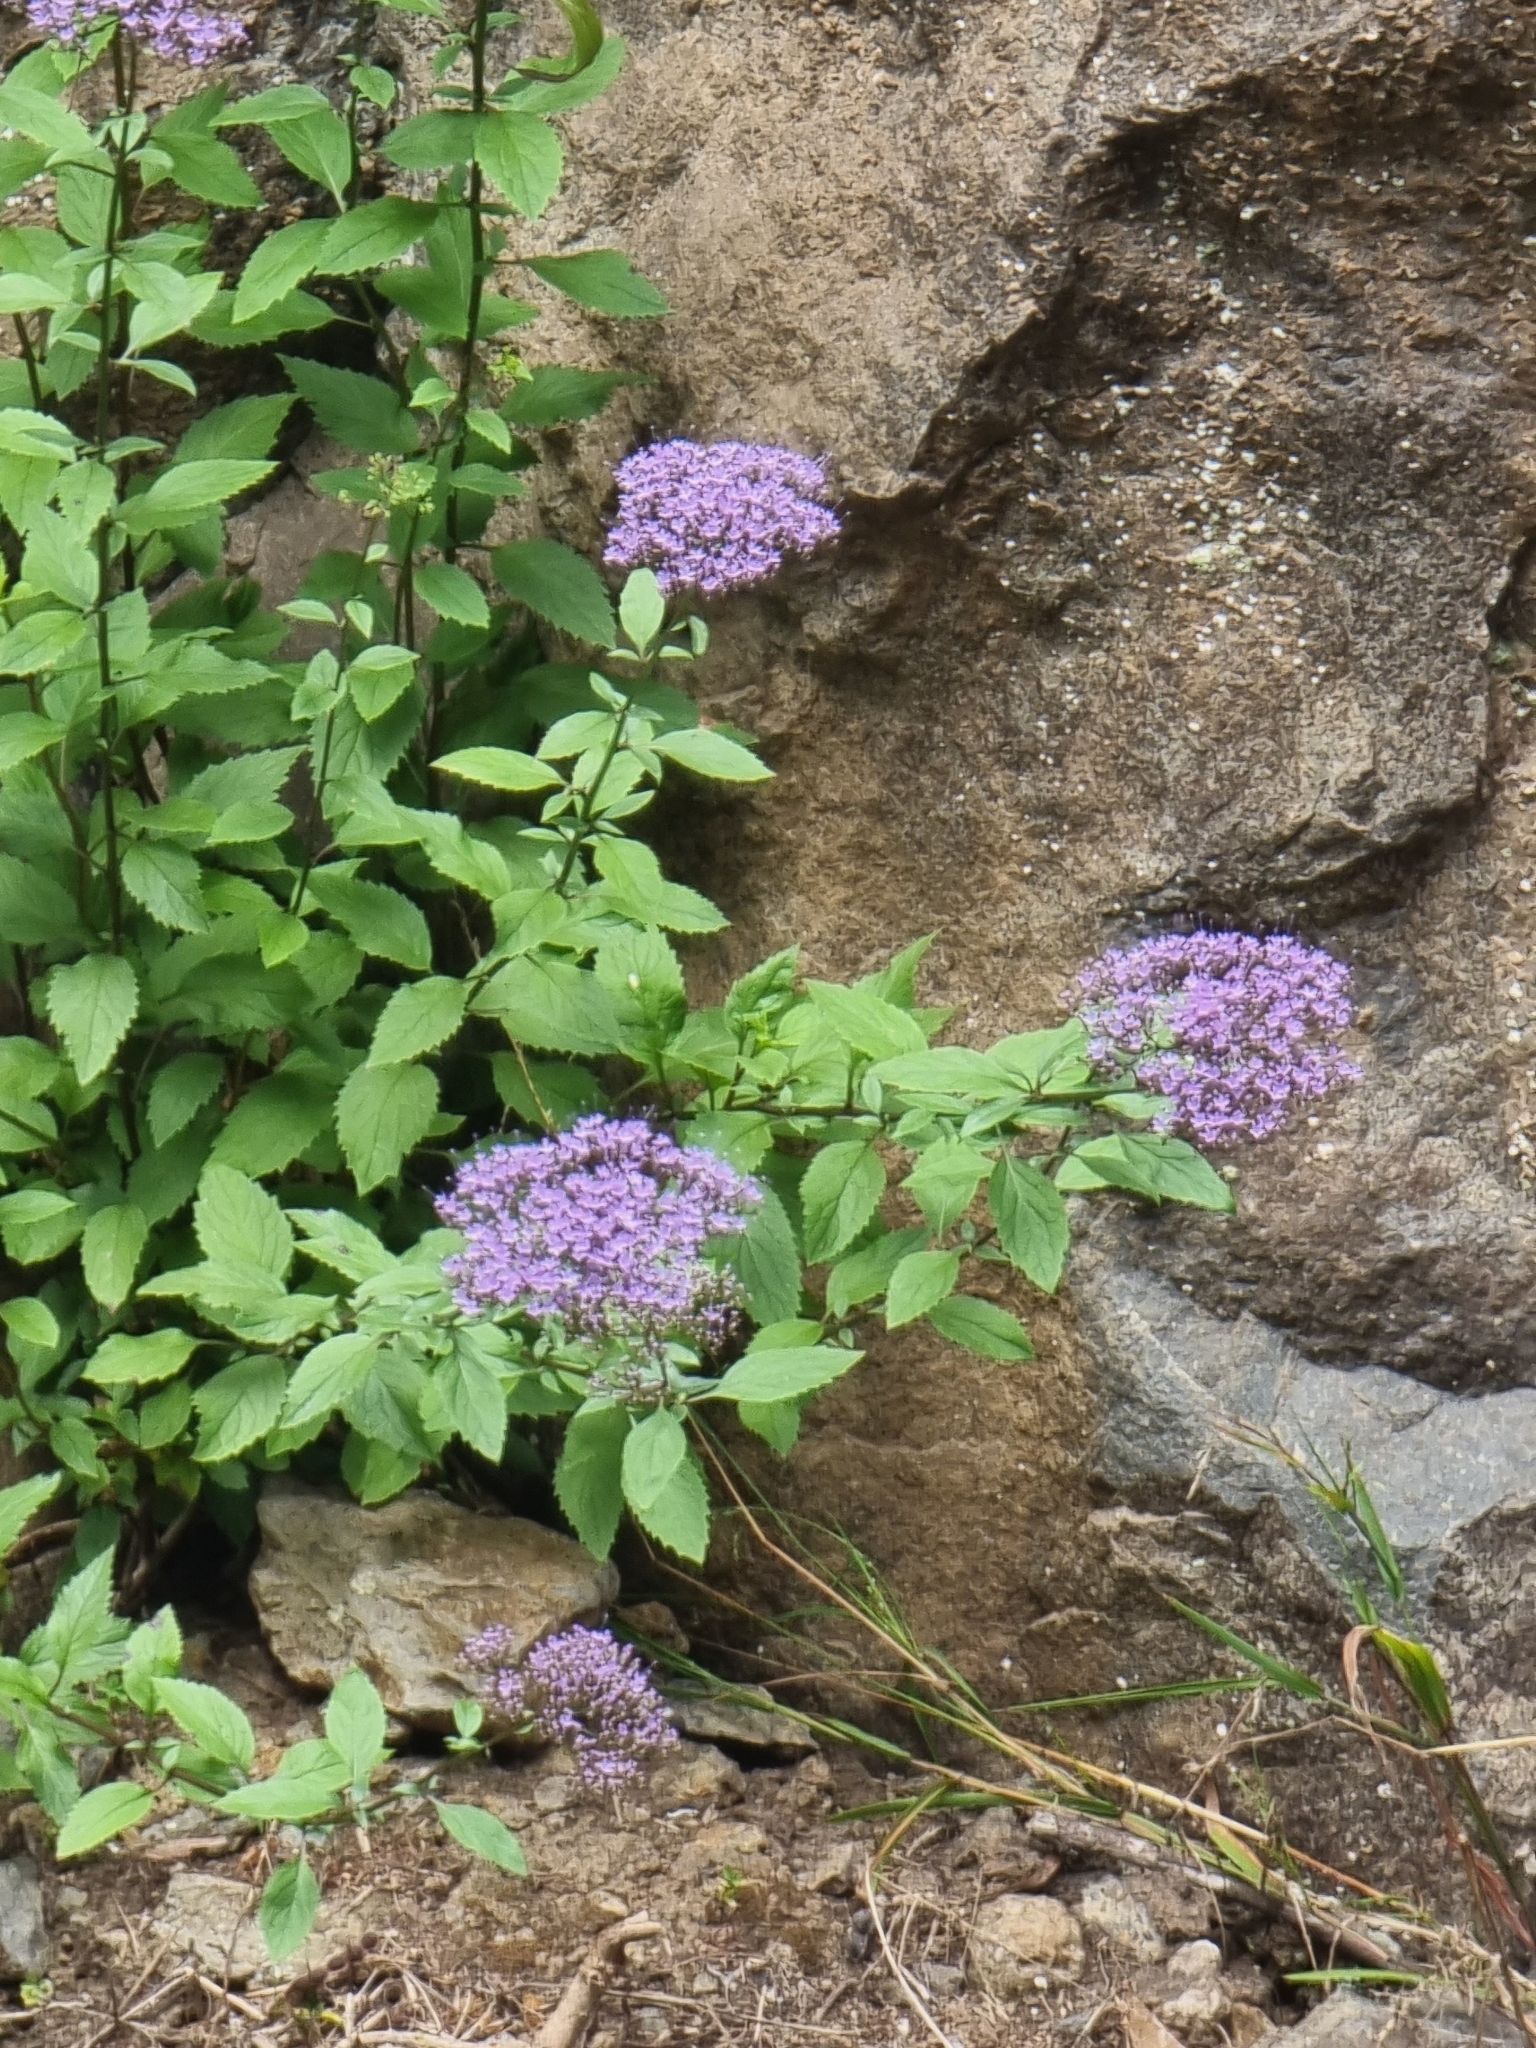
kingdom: Plantae
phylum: Tracheophyta
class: Magnoliopsida
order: Asterales
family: Campanulaceae
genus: Trachelium
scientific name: Trachelium caeruleum
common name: Throatwort
